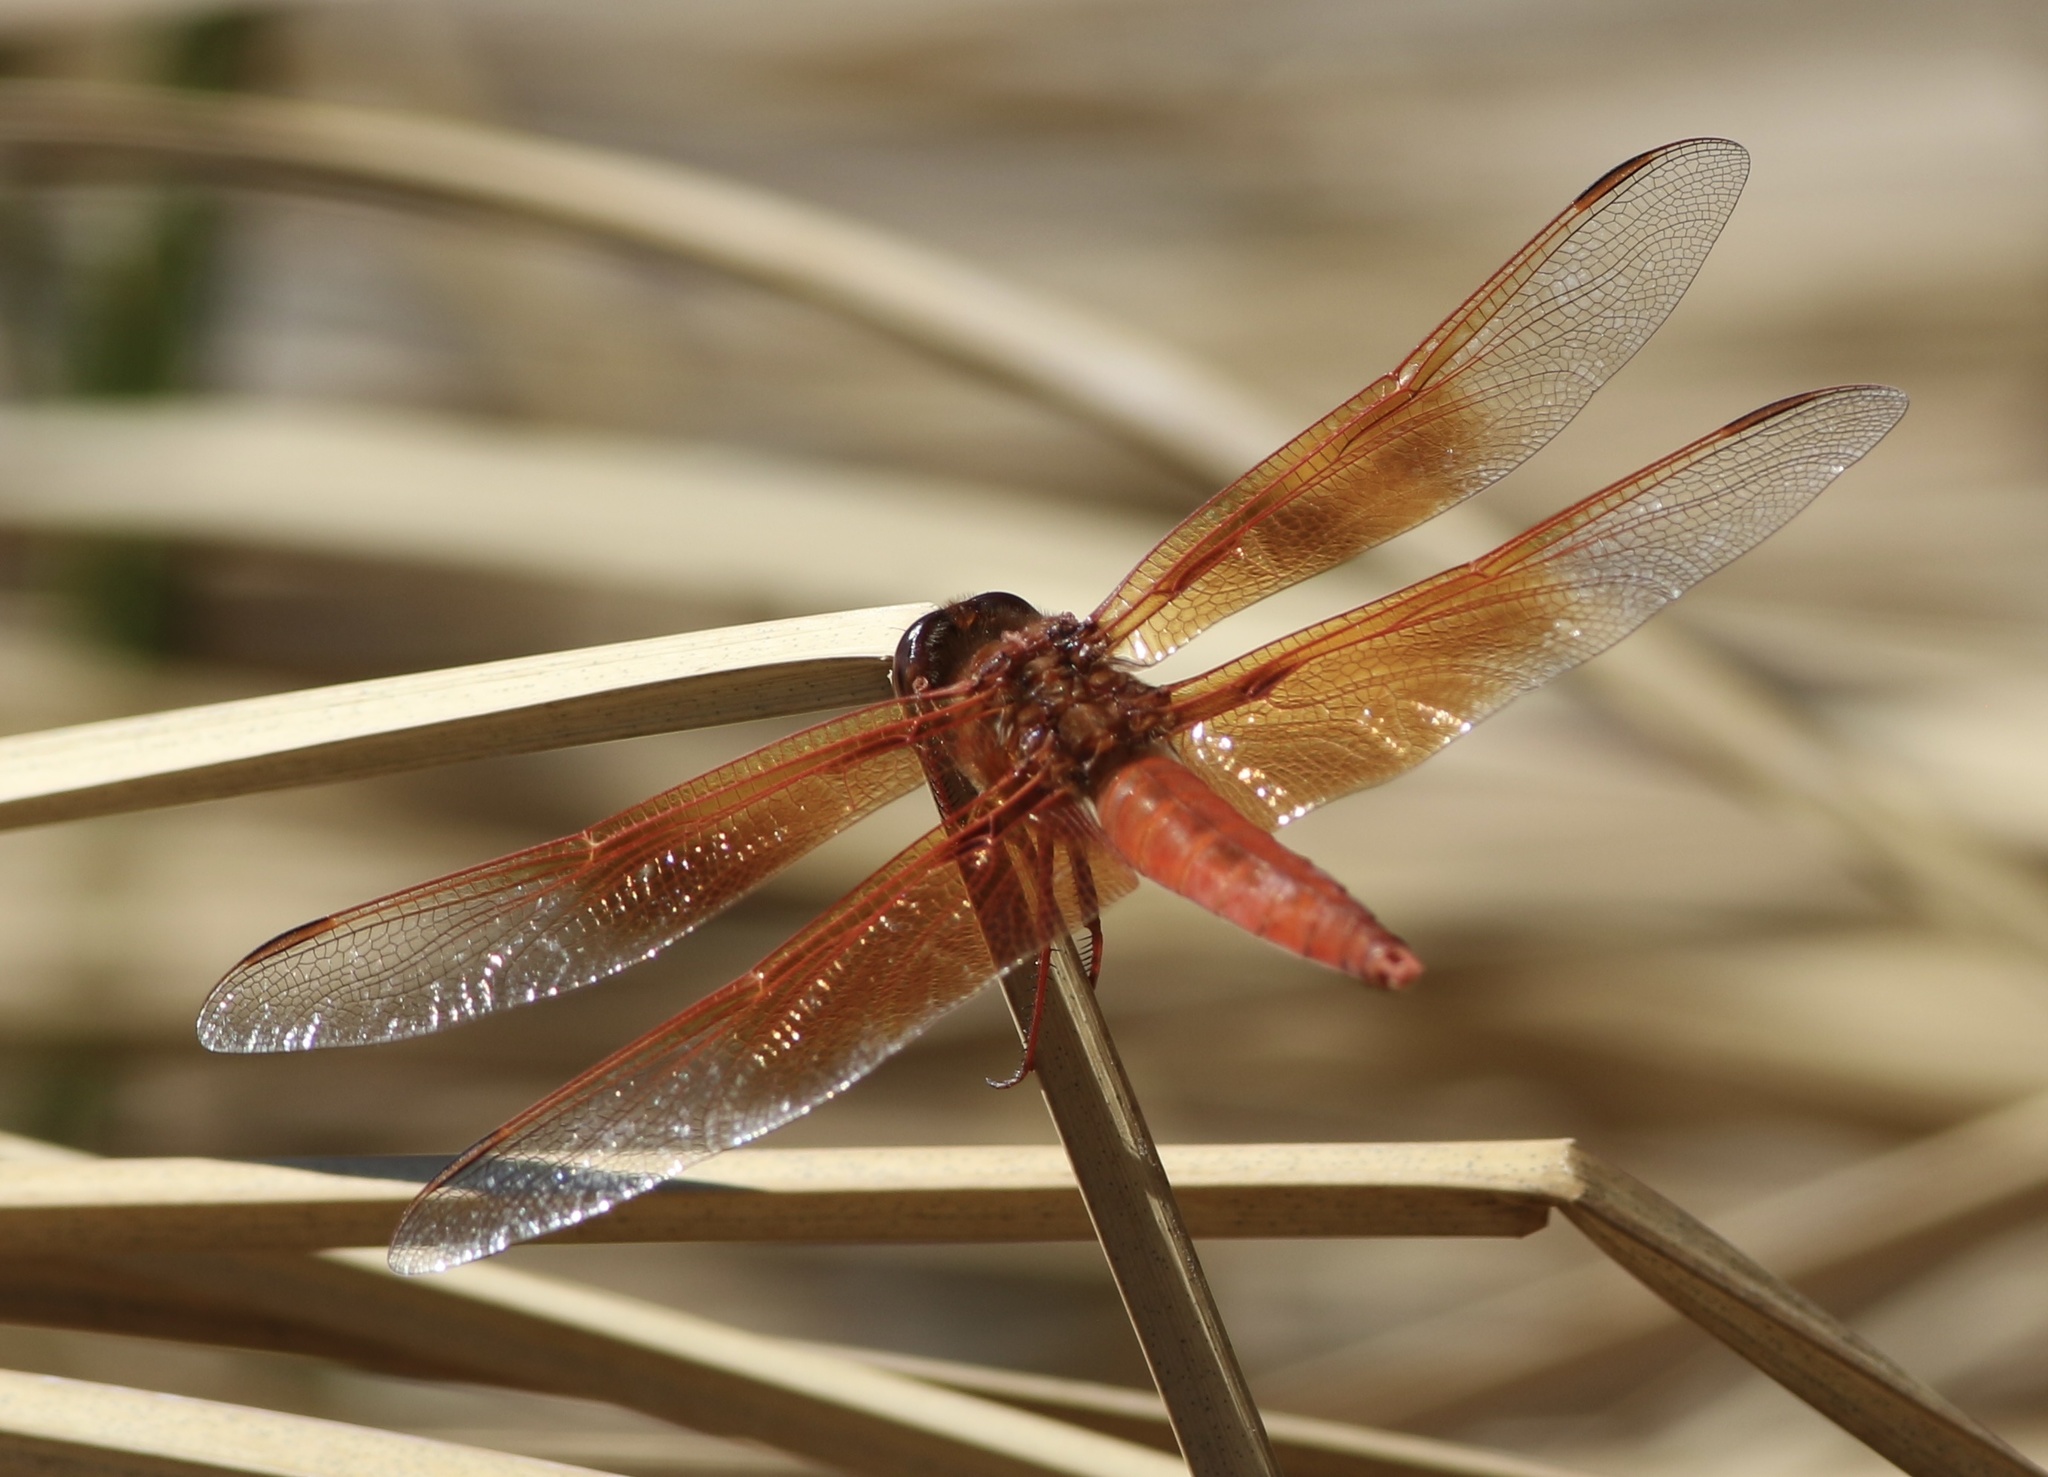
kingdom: Animalia
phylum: Arthropoda
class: Insecta
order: Odonata
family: Libellulidae
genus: Libellula
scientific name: Libellula saturata
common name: Flame skimmer
